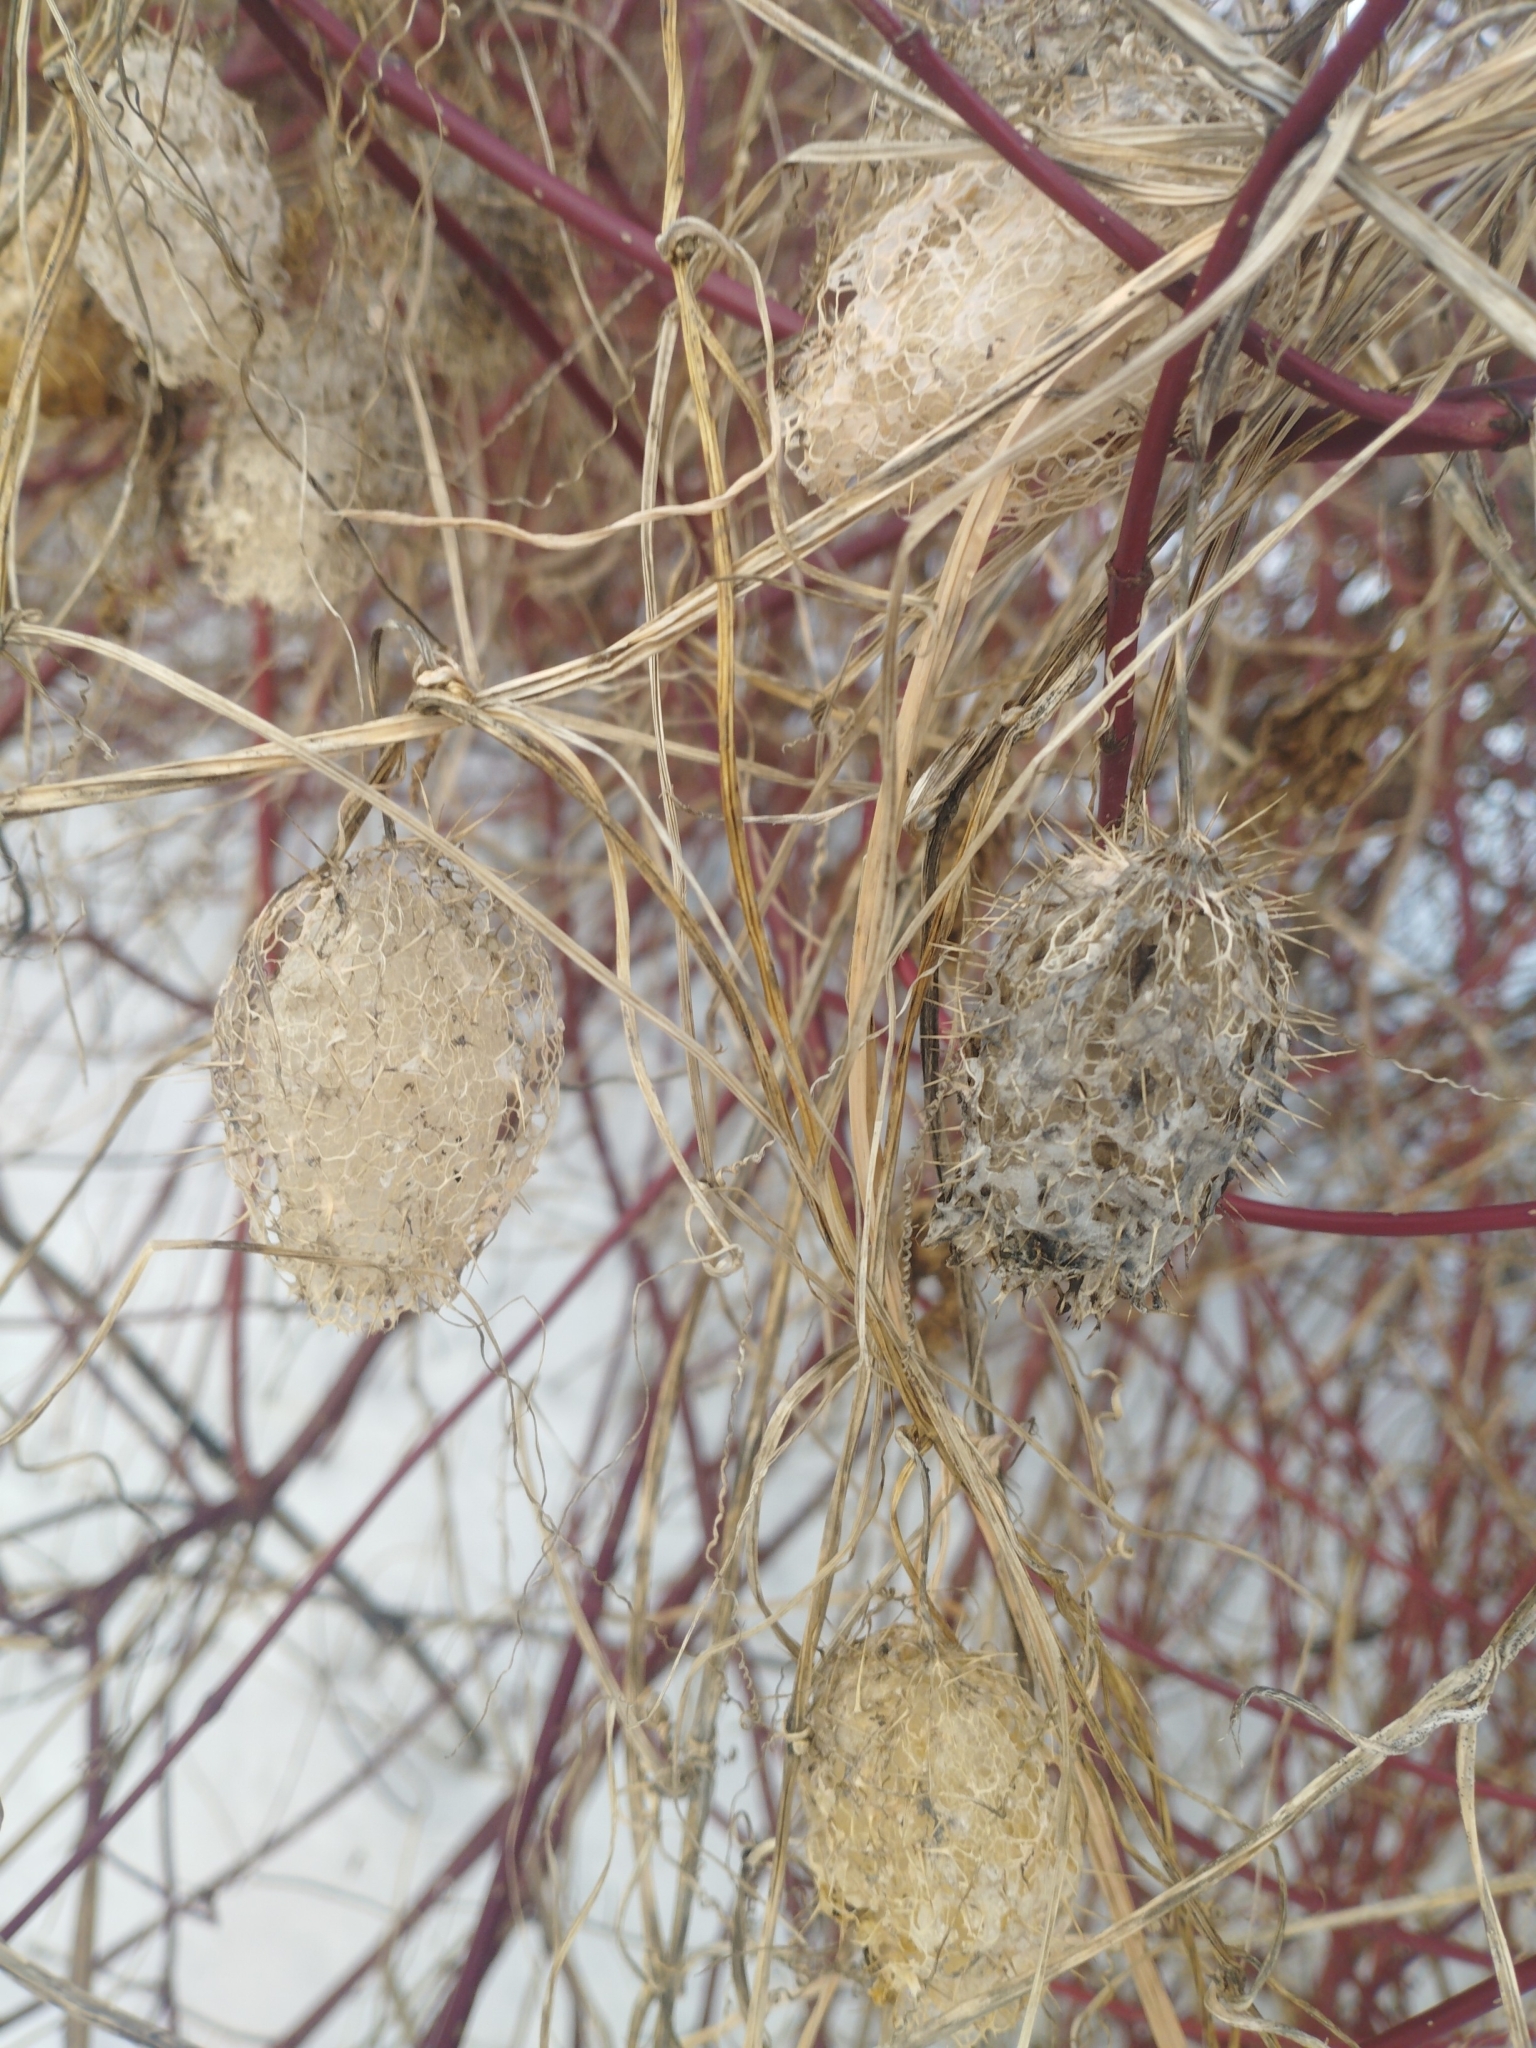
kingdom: Plantae
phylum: Tracheophyta
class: Magnoliopsida
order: Cucurbitales
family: Cucurbitaceae
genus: Echinocystis
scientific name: Echinocystis lobata
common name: Wild cucumber
